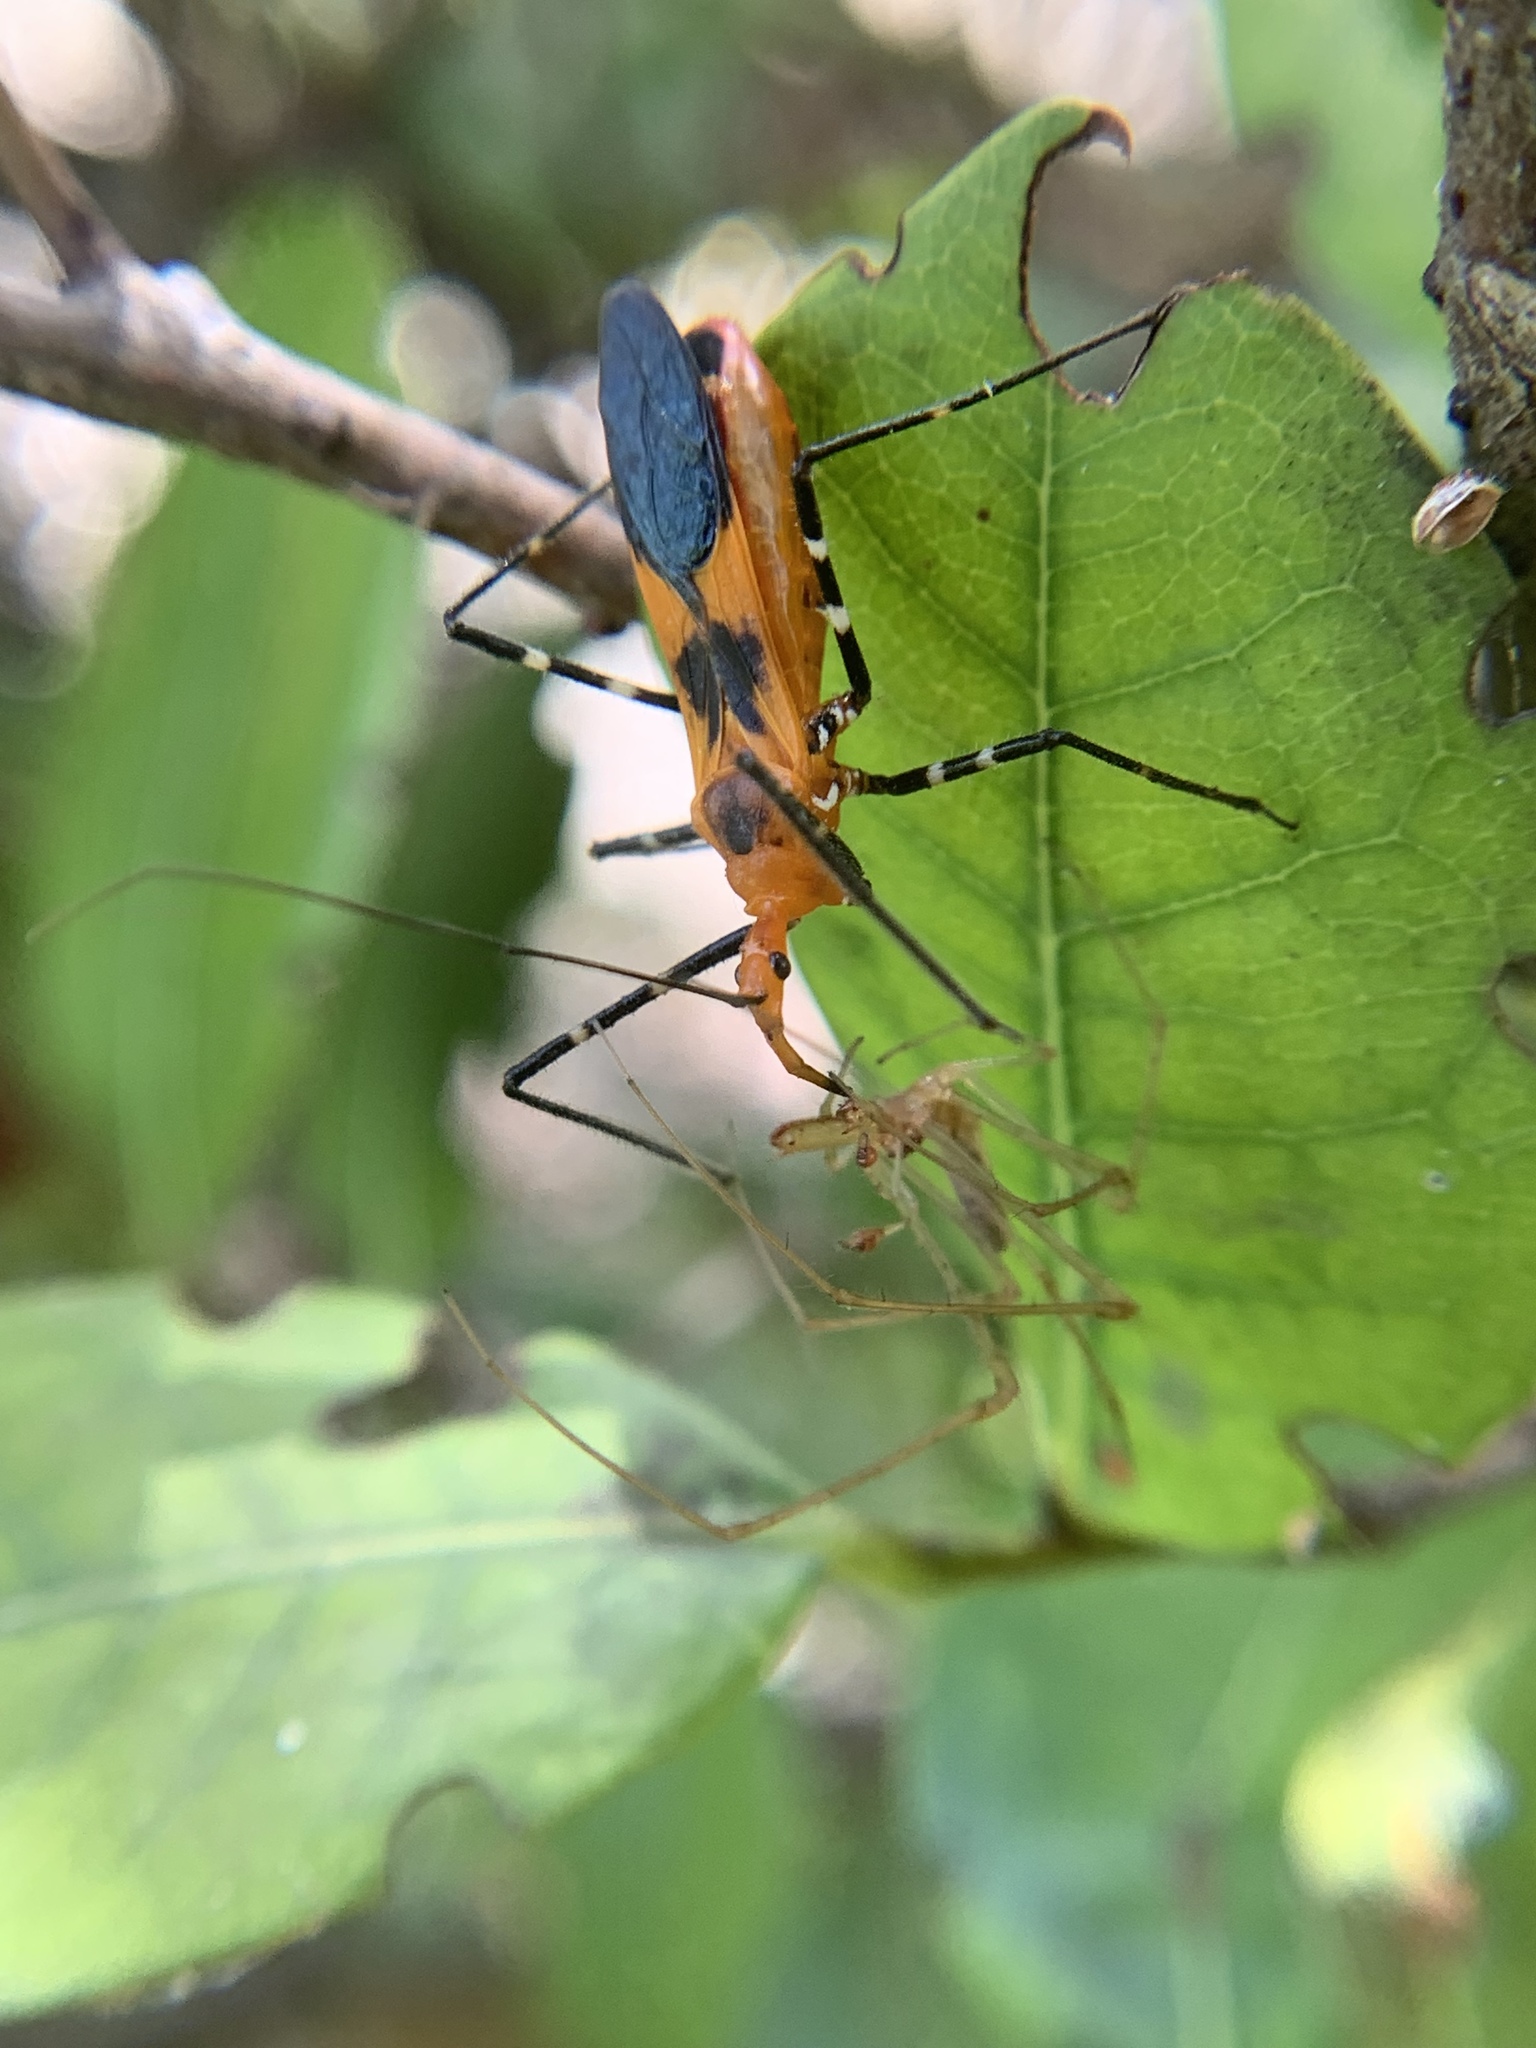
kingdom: Animalia
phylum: Arthropoda
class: Insecta
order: Hemiptera
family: Reduviidae
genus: Zelus
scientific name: Zelus longipes
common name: Milkweed assassin bug
